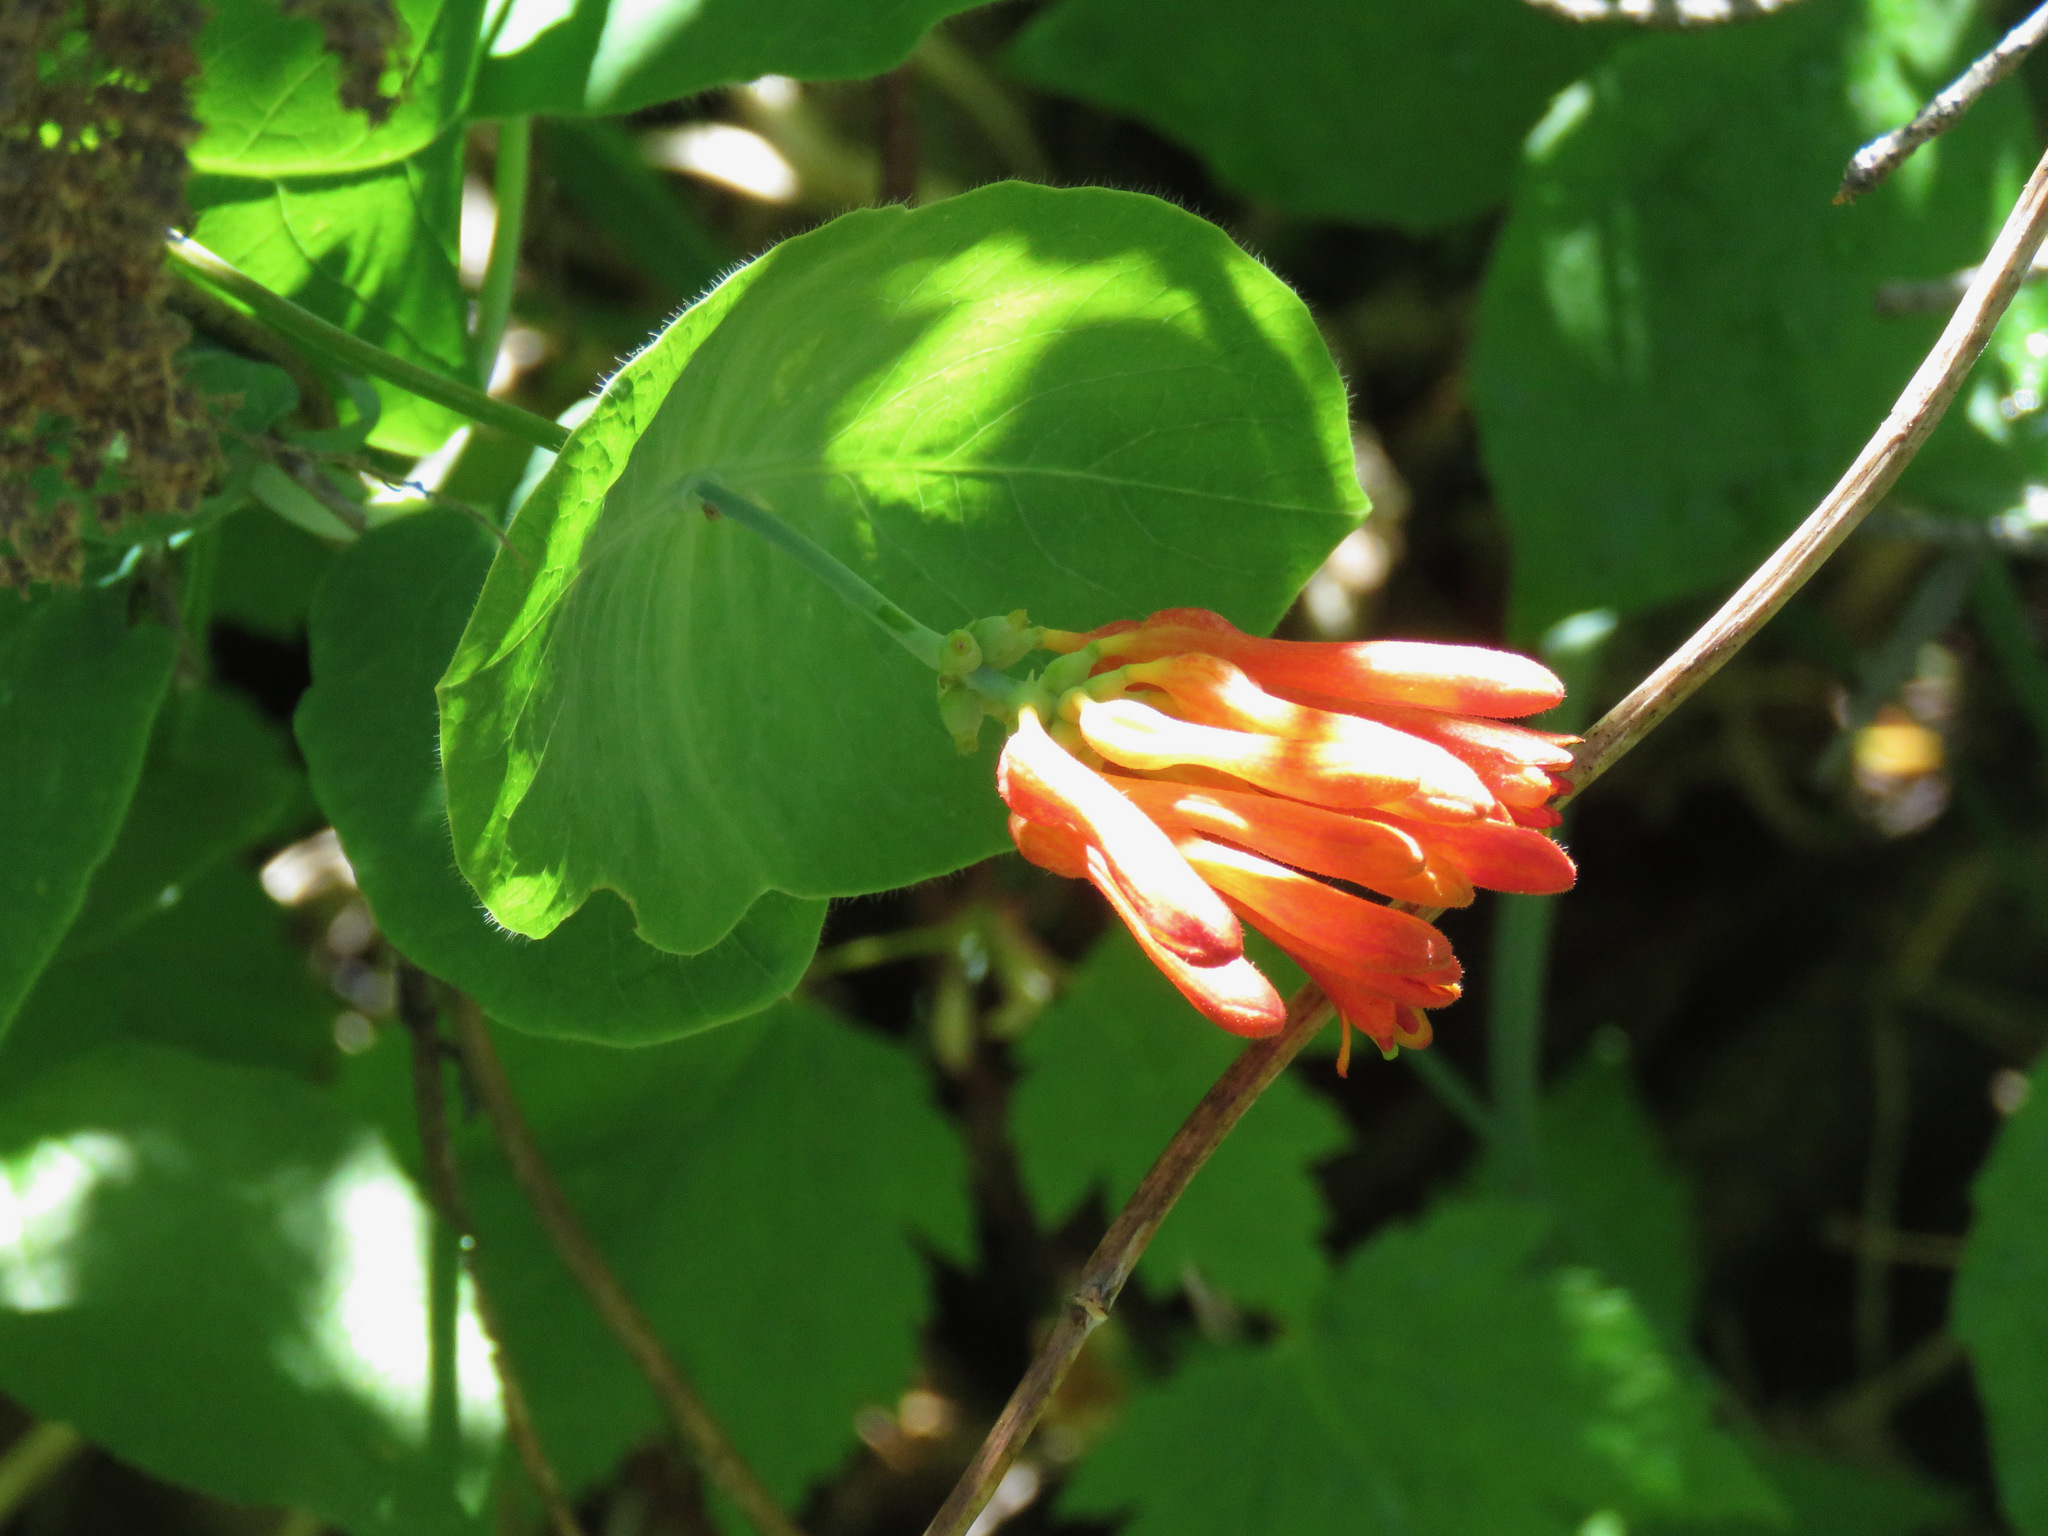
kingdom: Plantae
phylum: Tracheophyta
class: Magnoliopsida
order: Dipsacales
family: Caprifoliaceae
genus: Lonicera
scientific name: Lonicera ciliosa
